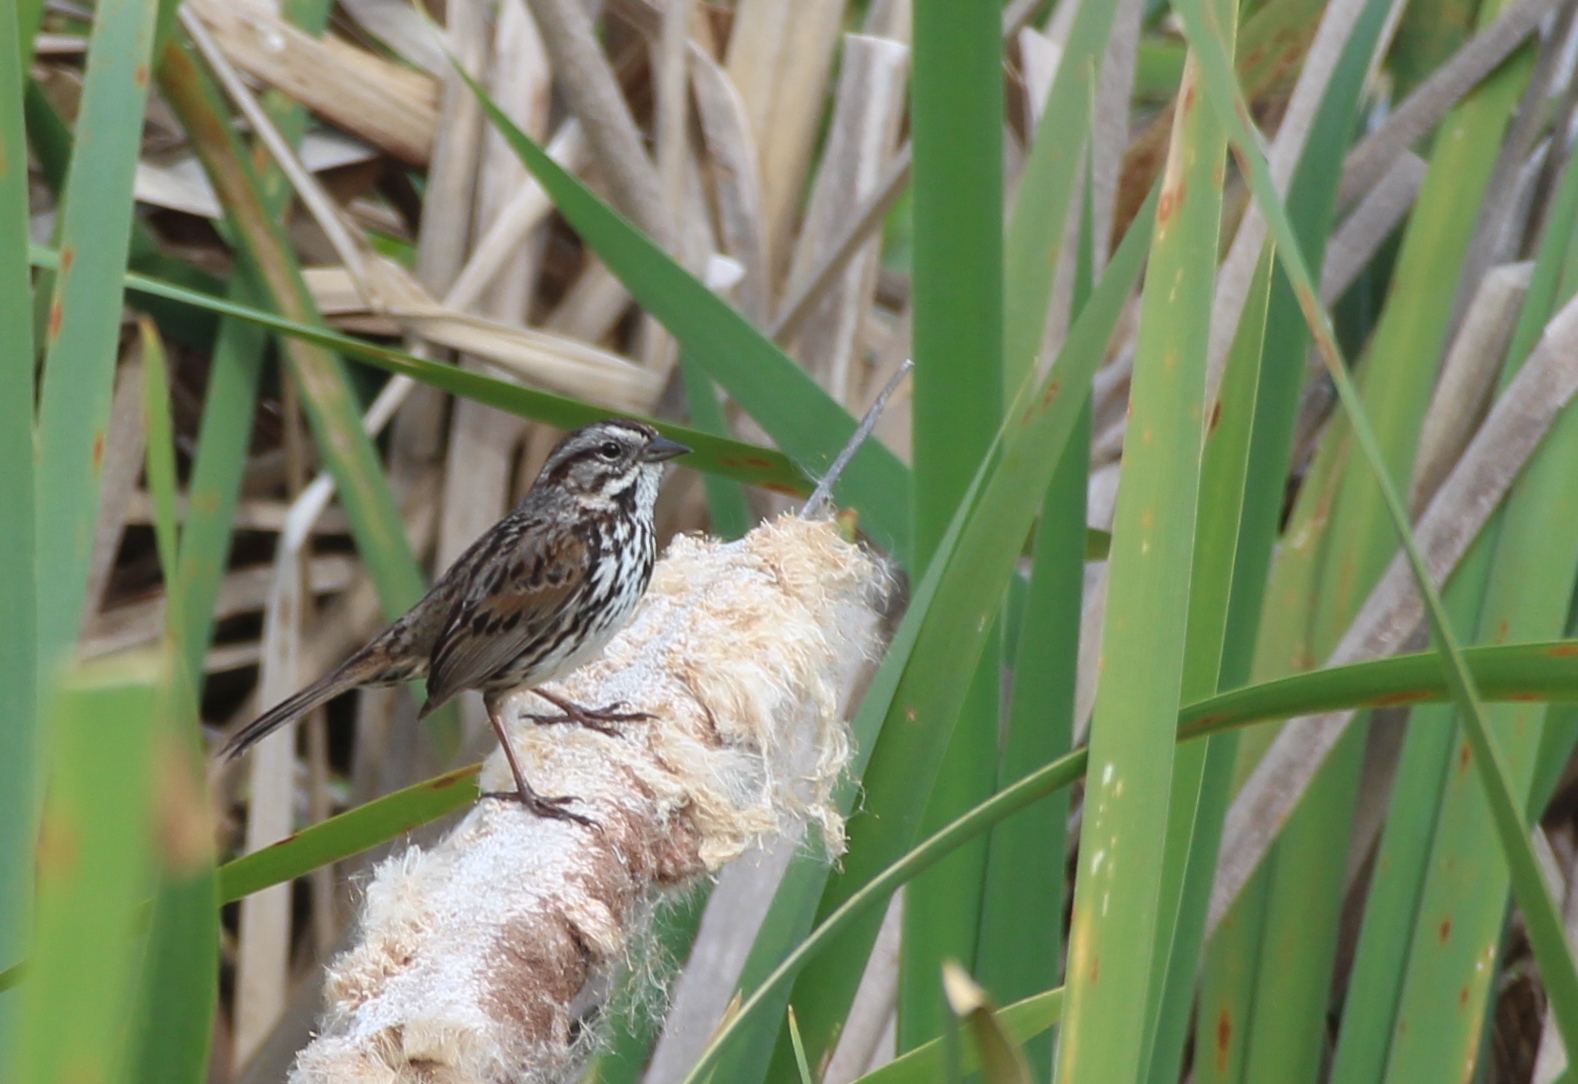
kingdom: Animalia
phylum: Chordata
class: Aves
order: Passeriformes
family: Passerellidae
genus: Melospiza
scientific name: Melospiza melodia
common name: Song sparrow
